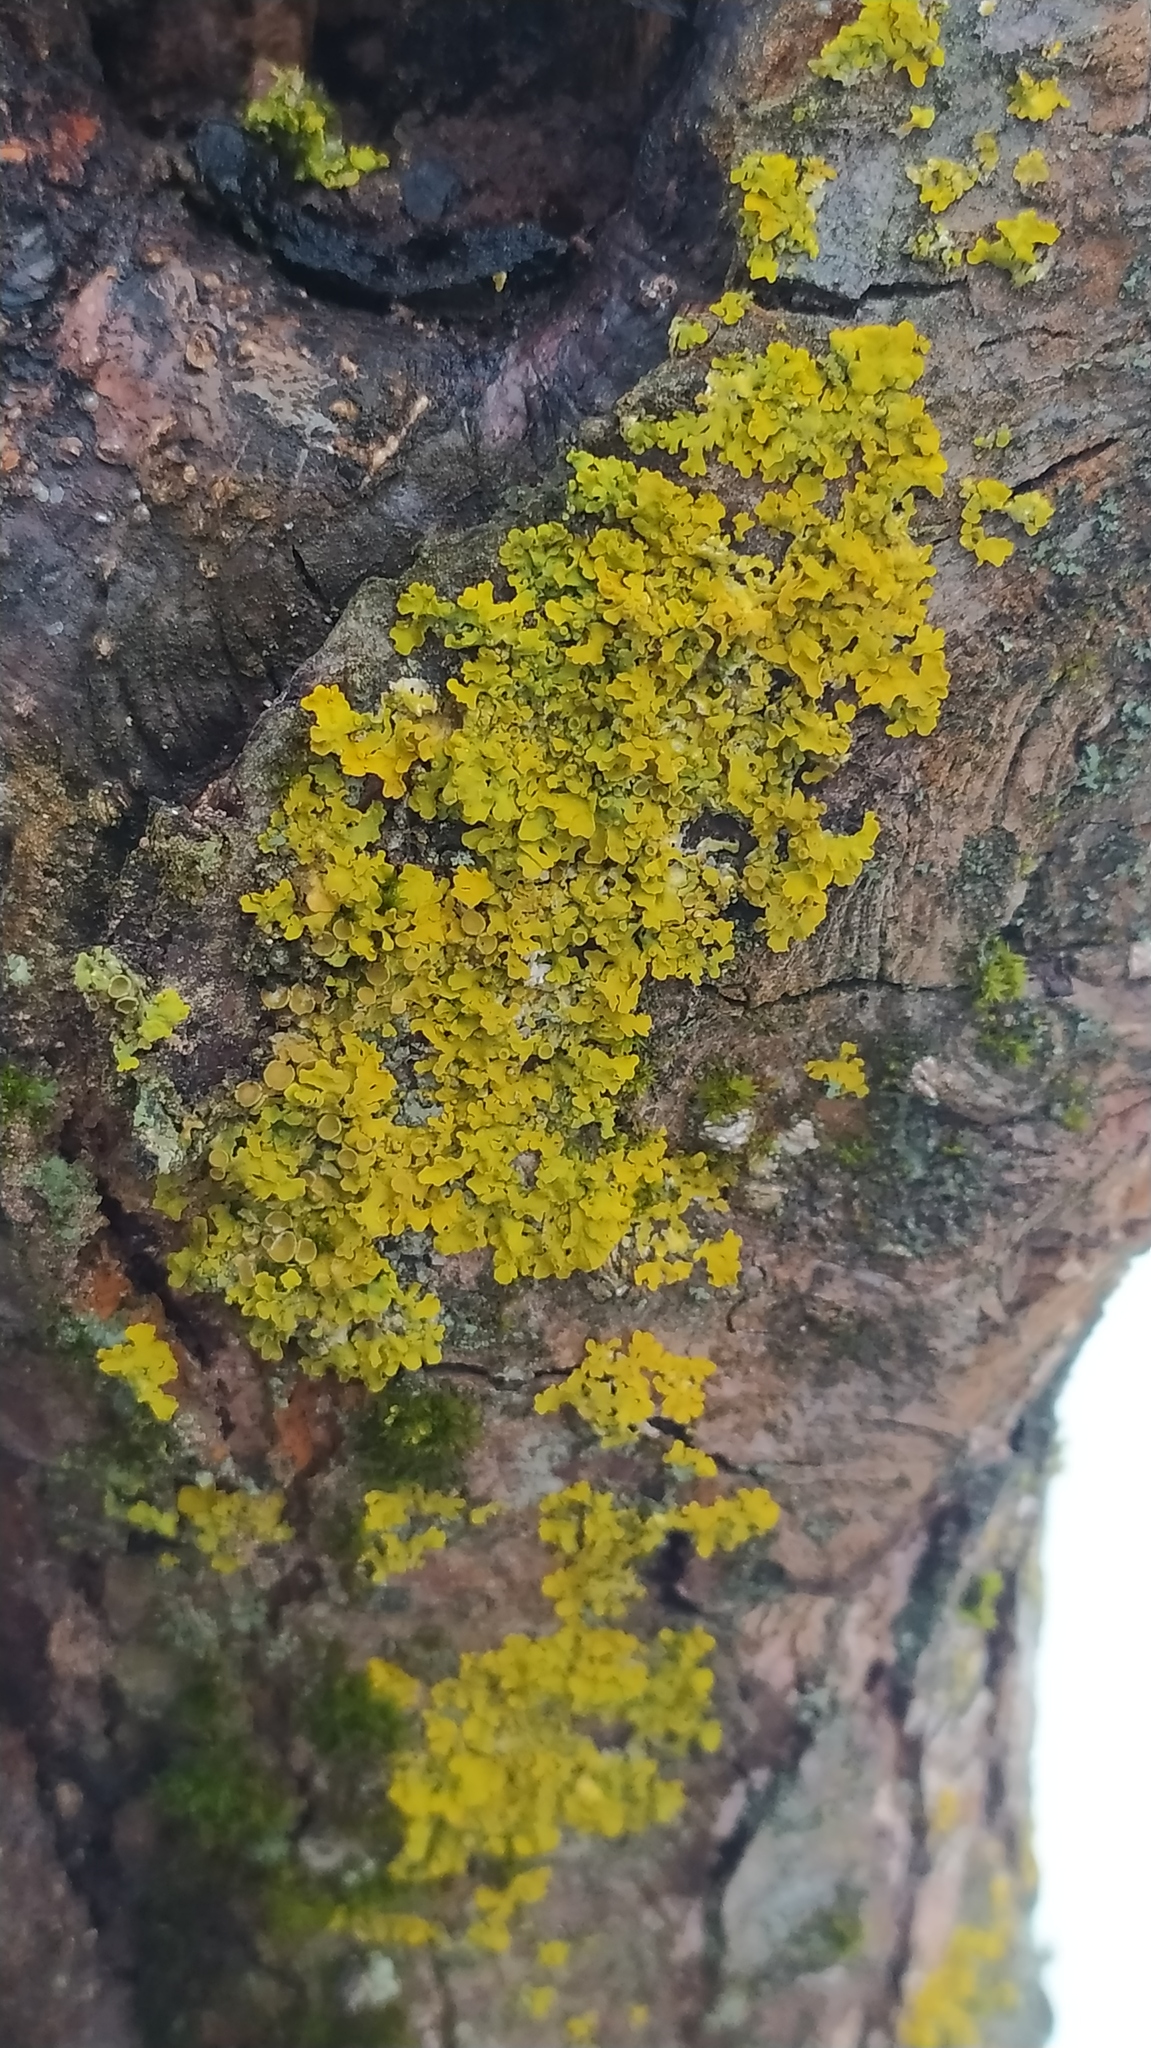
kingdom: Fungi
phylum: Ascomycota
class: Lecanoromycetes
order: Teloschistales
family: Teloschistaceae
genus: Xanthoria
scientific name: Xanthoria parietina
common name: Common orange lichen
